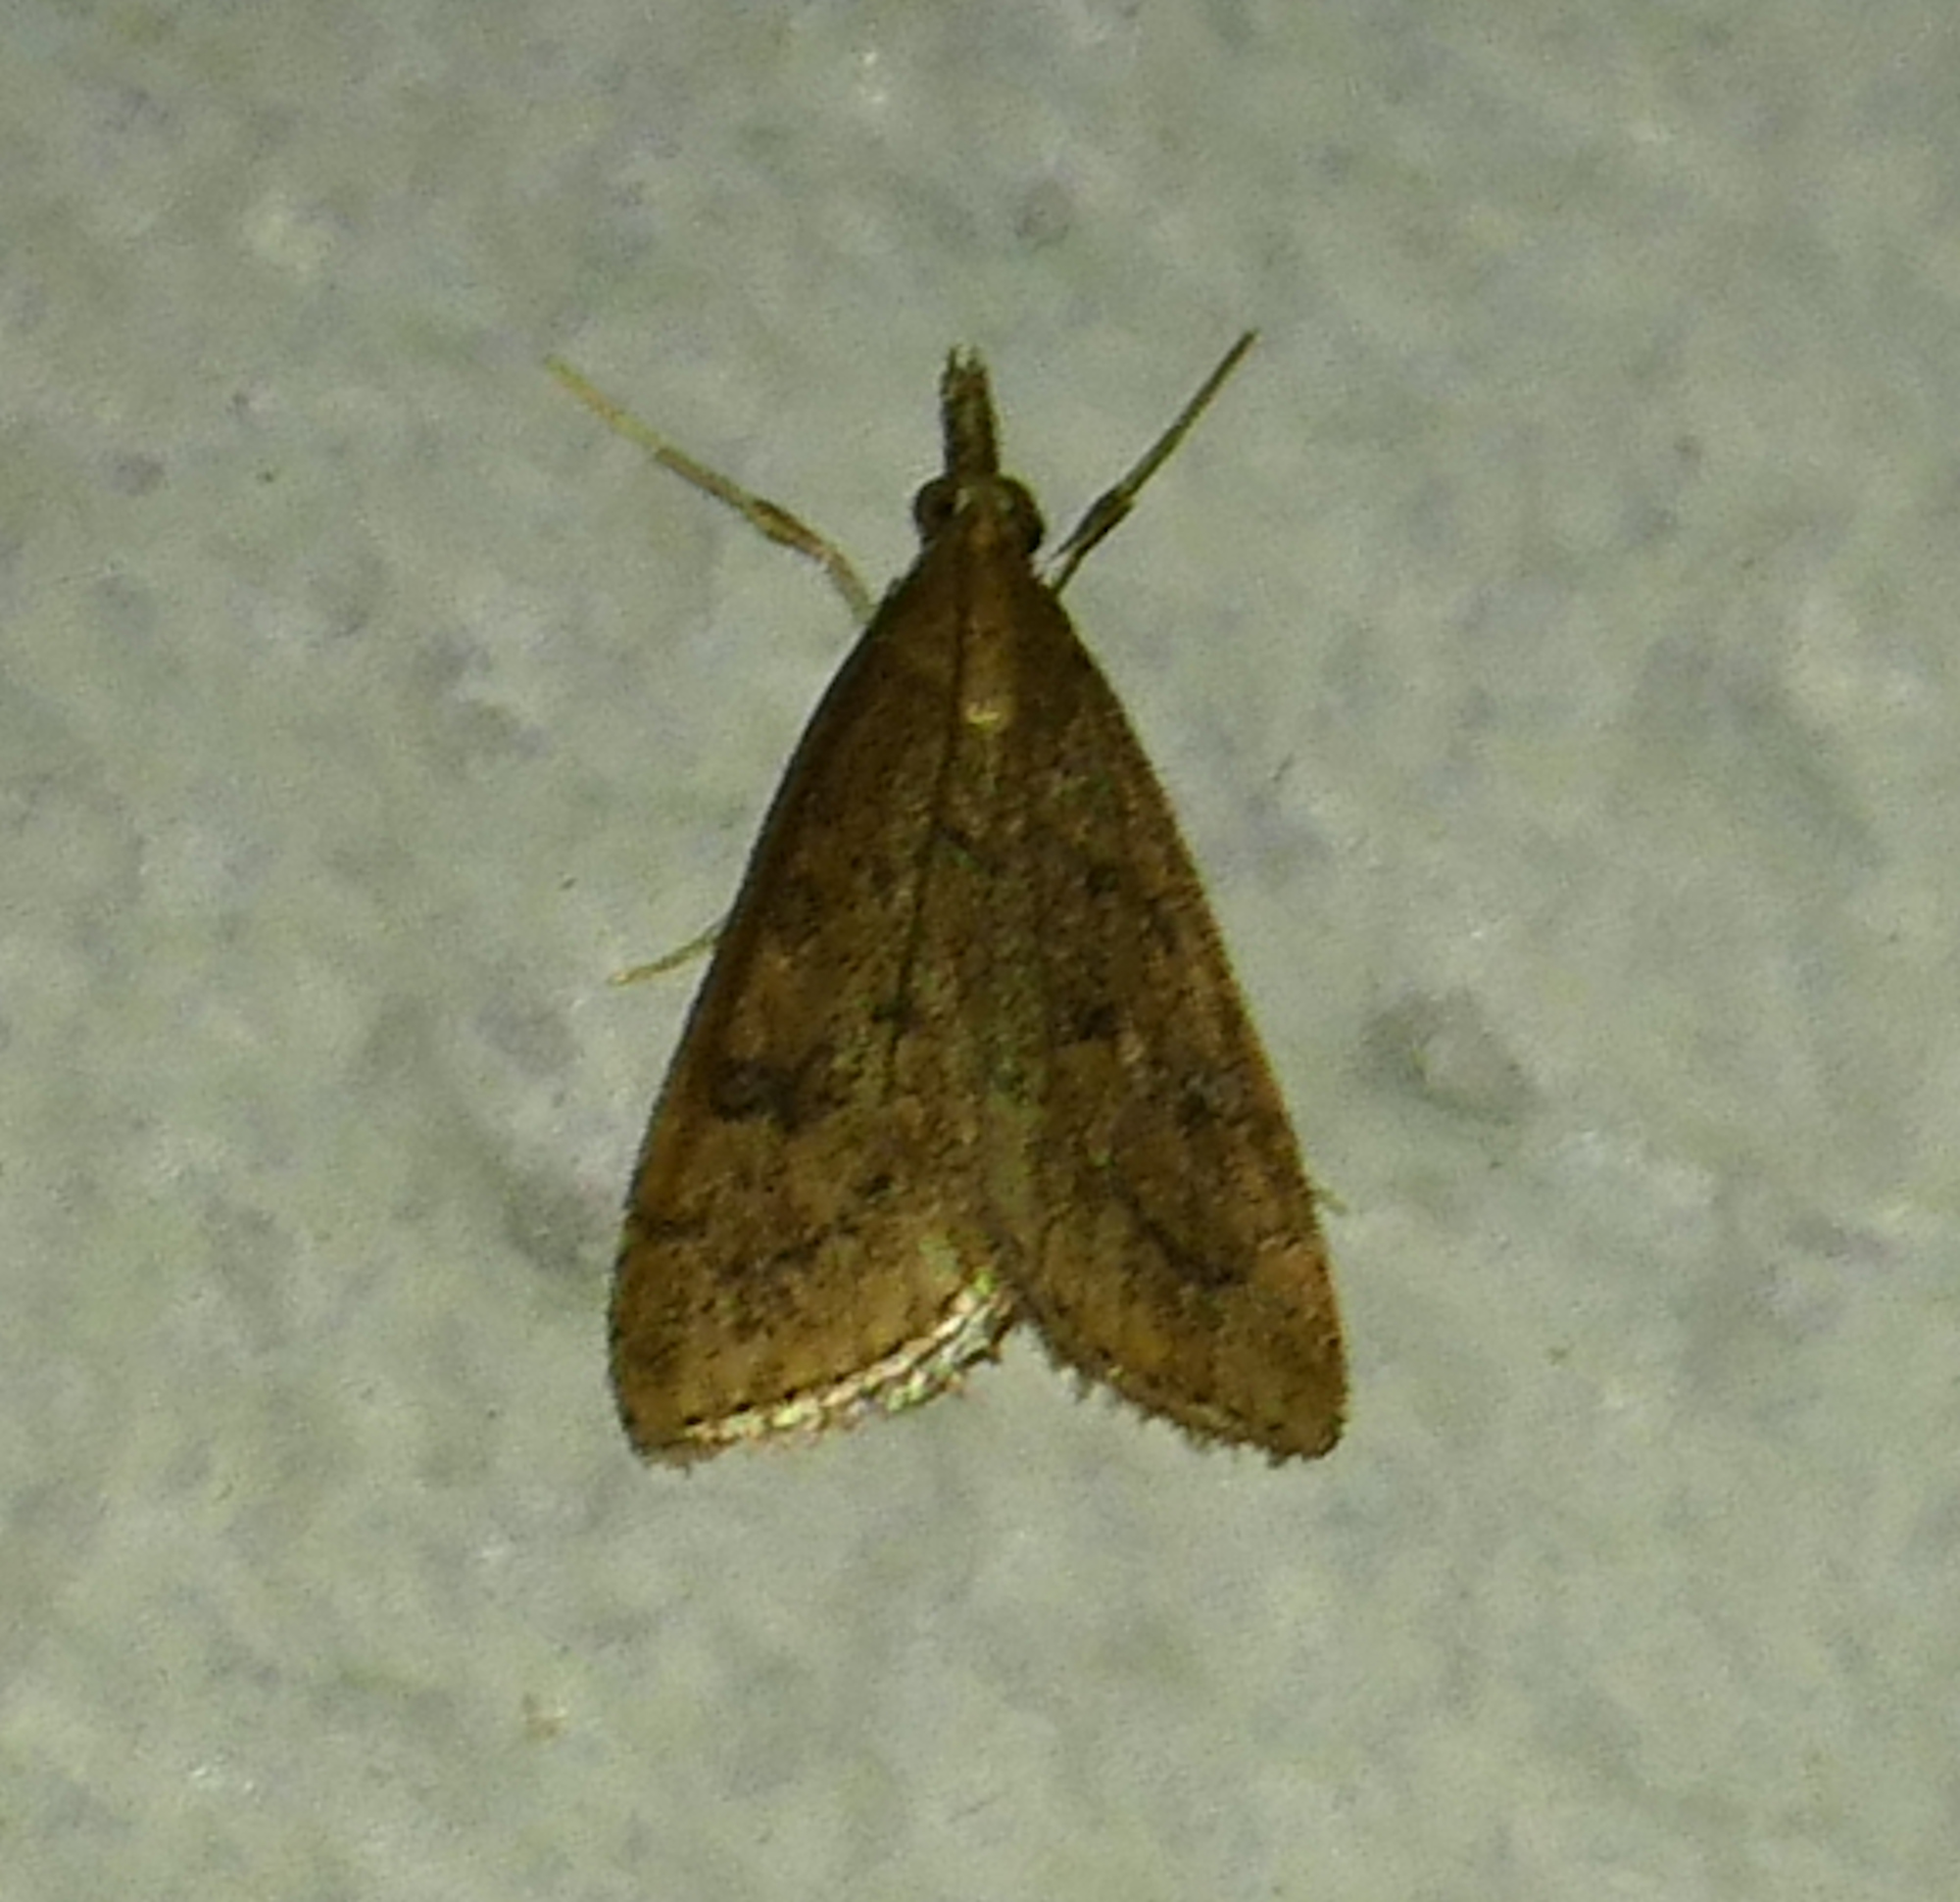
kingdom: Animalia
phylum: Arthropoda
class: Insecta
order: Lepidoptera
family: Crambidae
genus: Udea
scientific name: Udea rubigalis
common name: Celery leaftier moth
